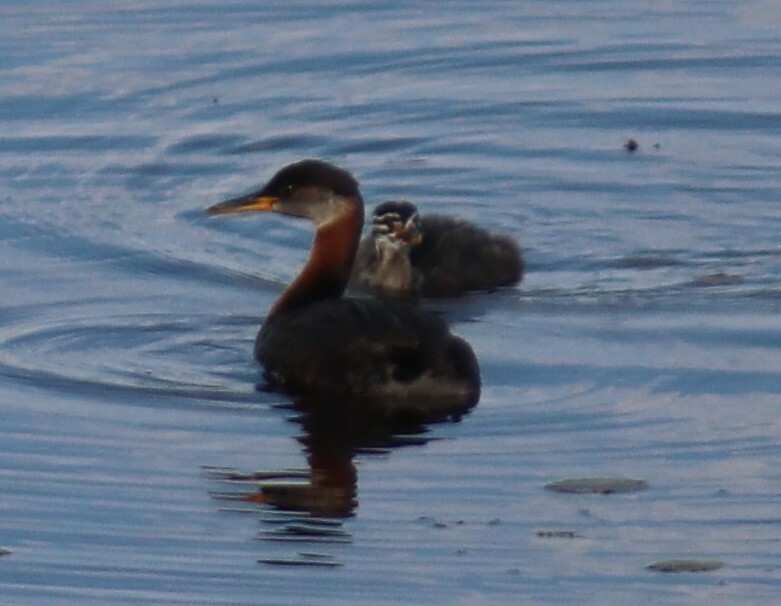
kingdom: Animalia
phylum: Chordata
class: Aves
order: Podicipediformes
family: Podicipedidae
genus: Podiceps
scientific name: Podiceps grisegena
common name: Red-necked grebe
